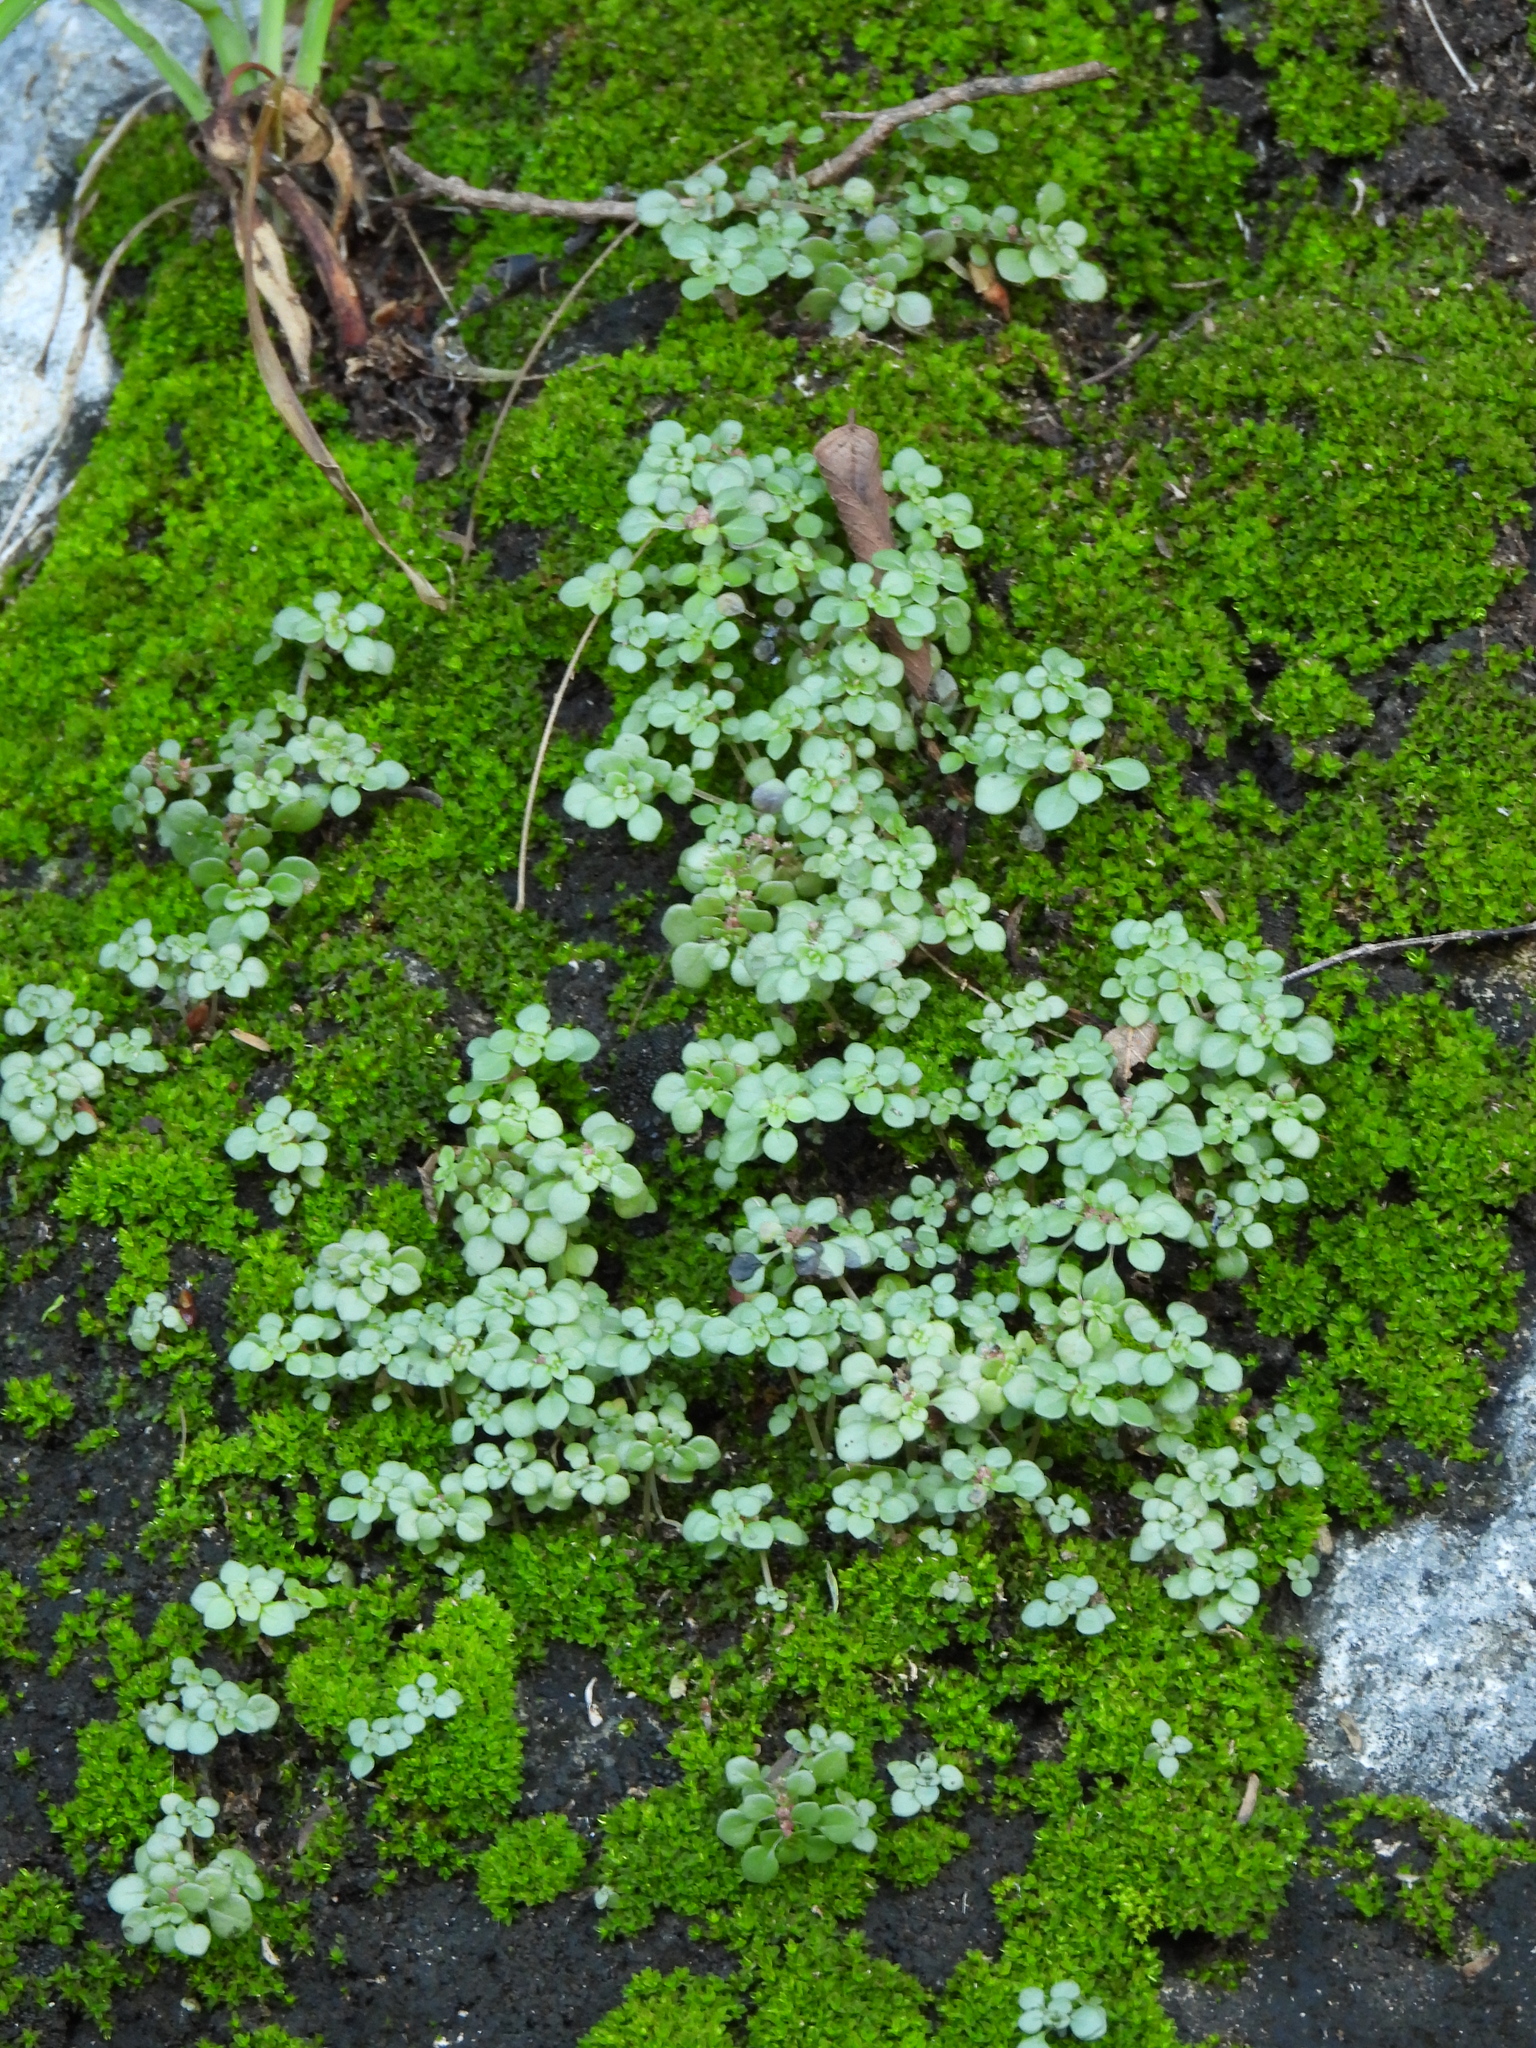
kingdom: Plantae
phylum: Tracheophyta
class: Magnoliopsida
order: Rosales
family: Urticaceae
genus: Pilea
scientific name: Pilea microphylla
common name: Artillery-plant
